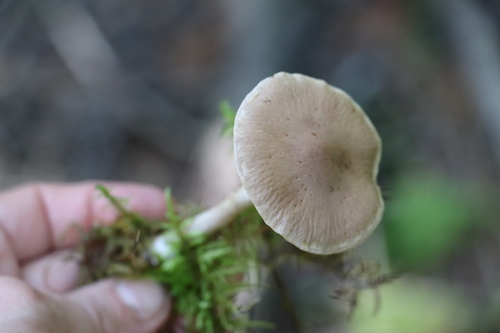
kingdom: Fungi
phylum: Basidiomycota
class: Agaricomycetes
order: Agaricales
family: Cortinariaceae
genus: Cortinarius
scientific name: Cortinarius anomalus
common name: Variable webcap
